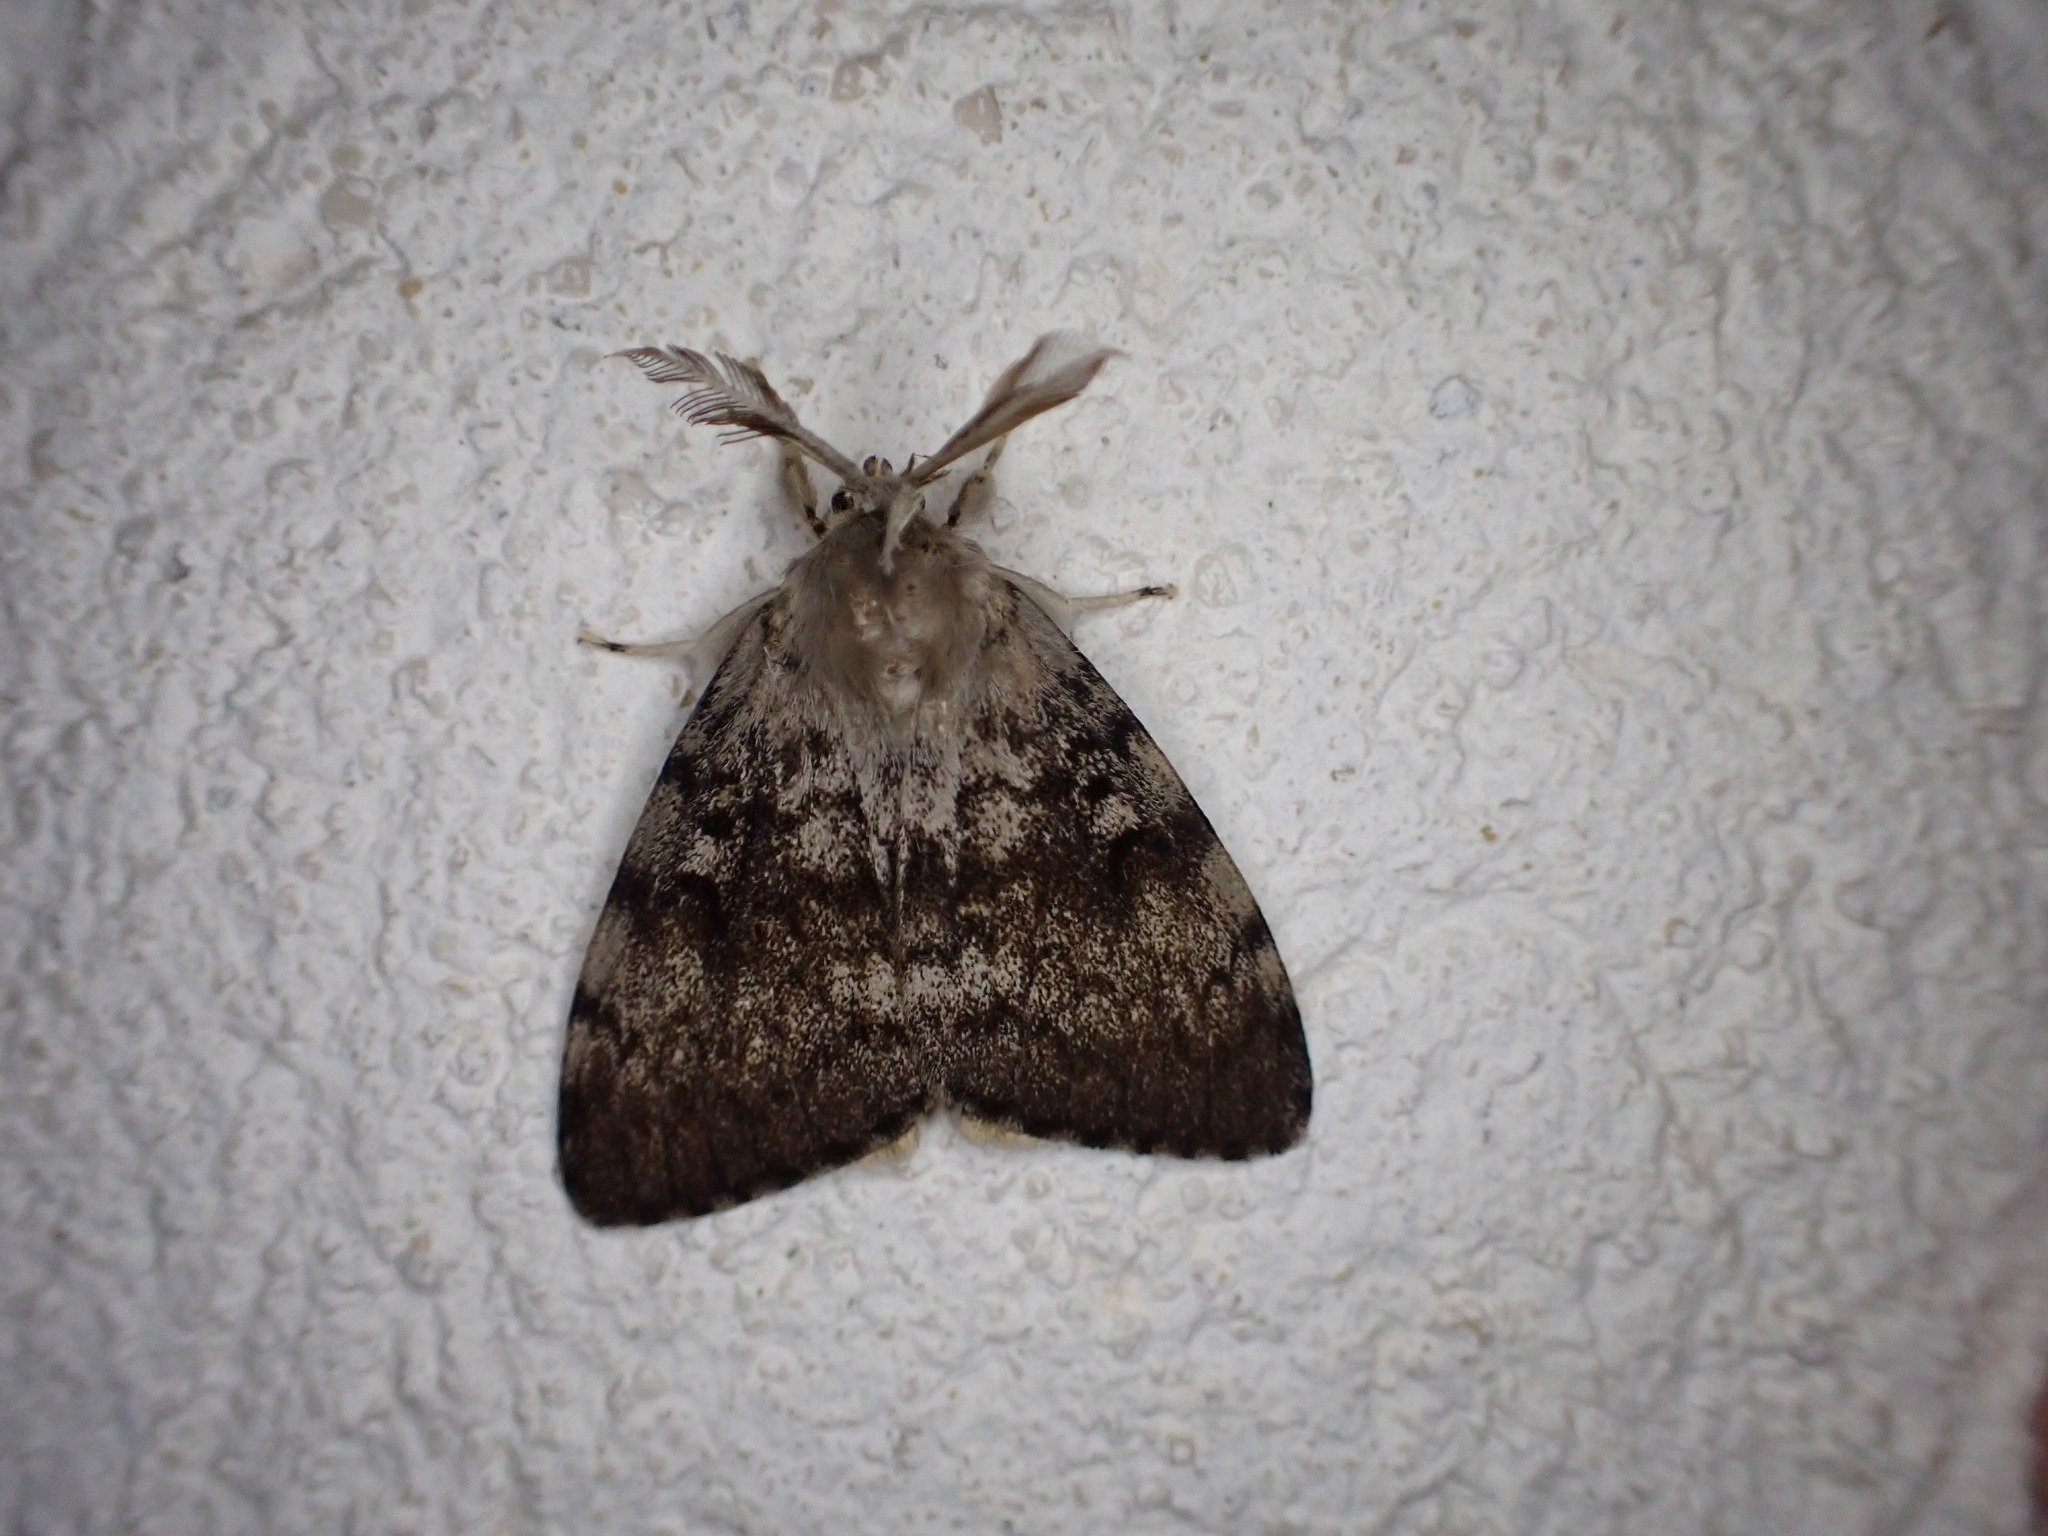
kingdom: Animalia
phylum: Arthropoda
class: Insecta
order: Lepidoptera
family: Erebidae
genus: Lymantria
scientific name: Lymantria dispar
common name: Gypsy moth
